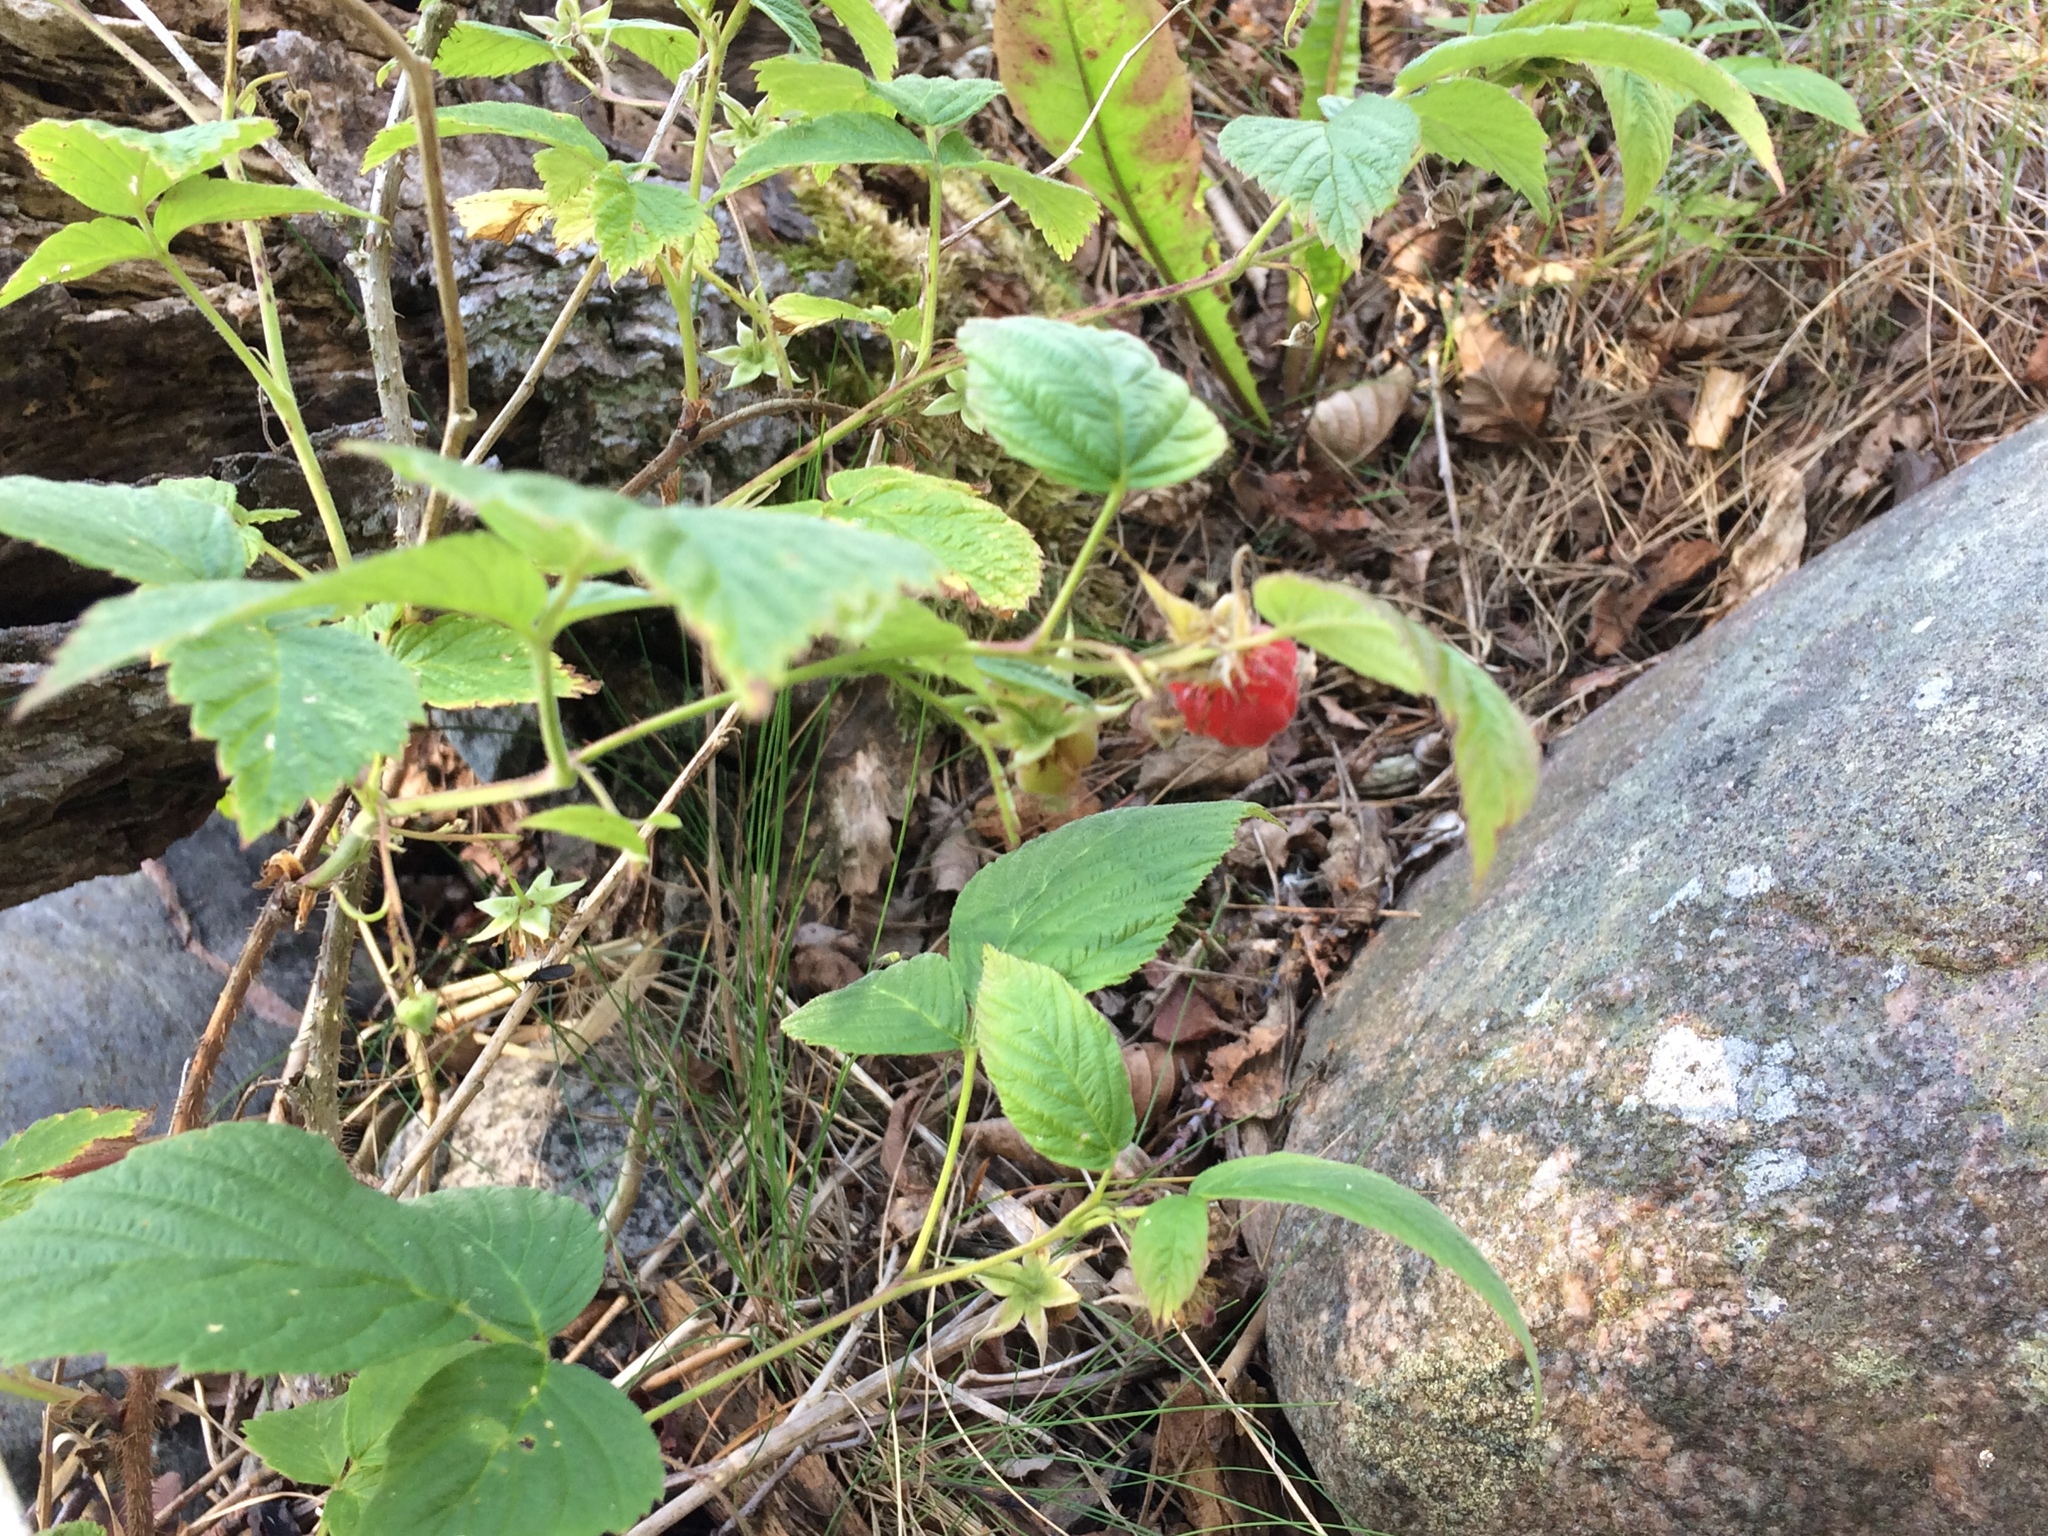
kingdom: Plantae
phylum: Tracheophyta
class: Magnoliopsida
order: Rosales
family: Rosaceae
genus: Rubus
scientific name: Rubus idaeus
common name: Raspberry
